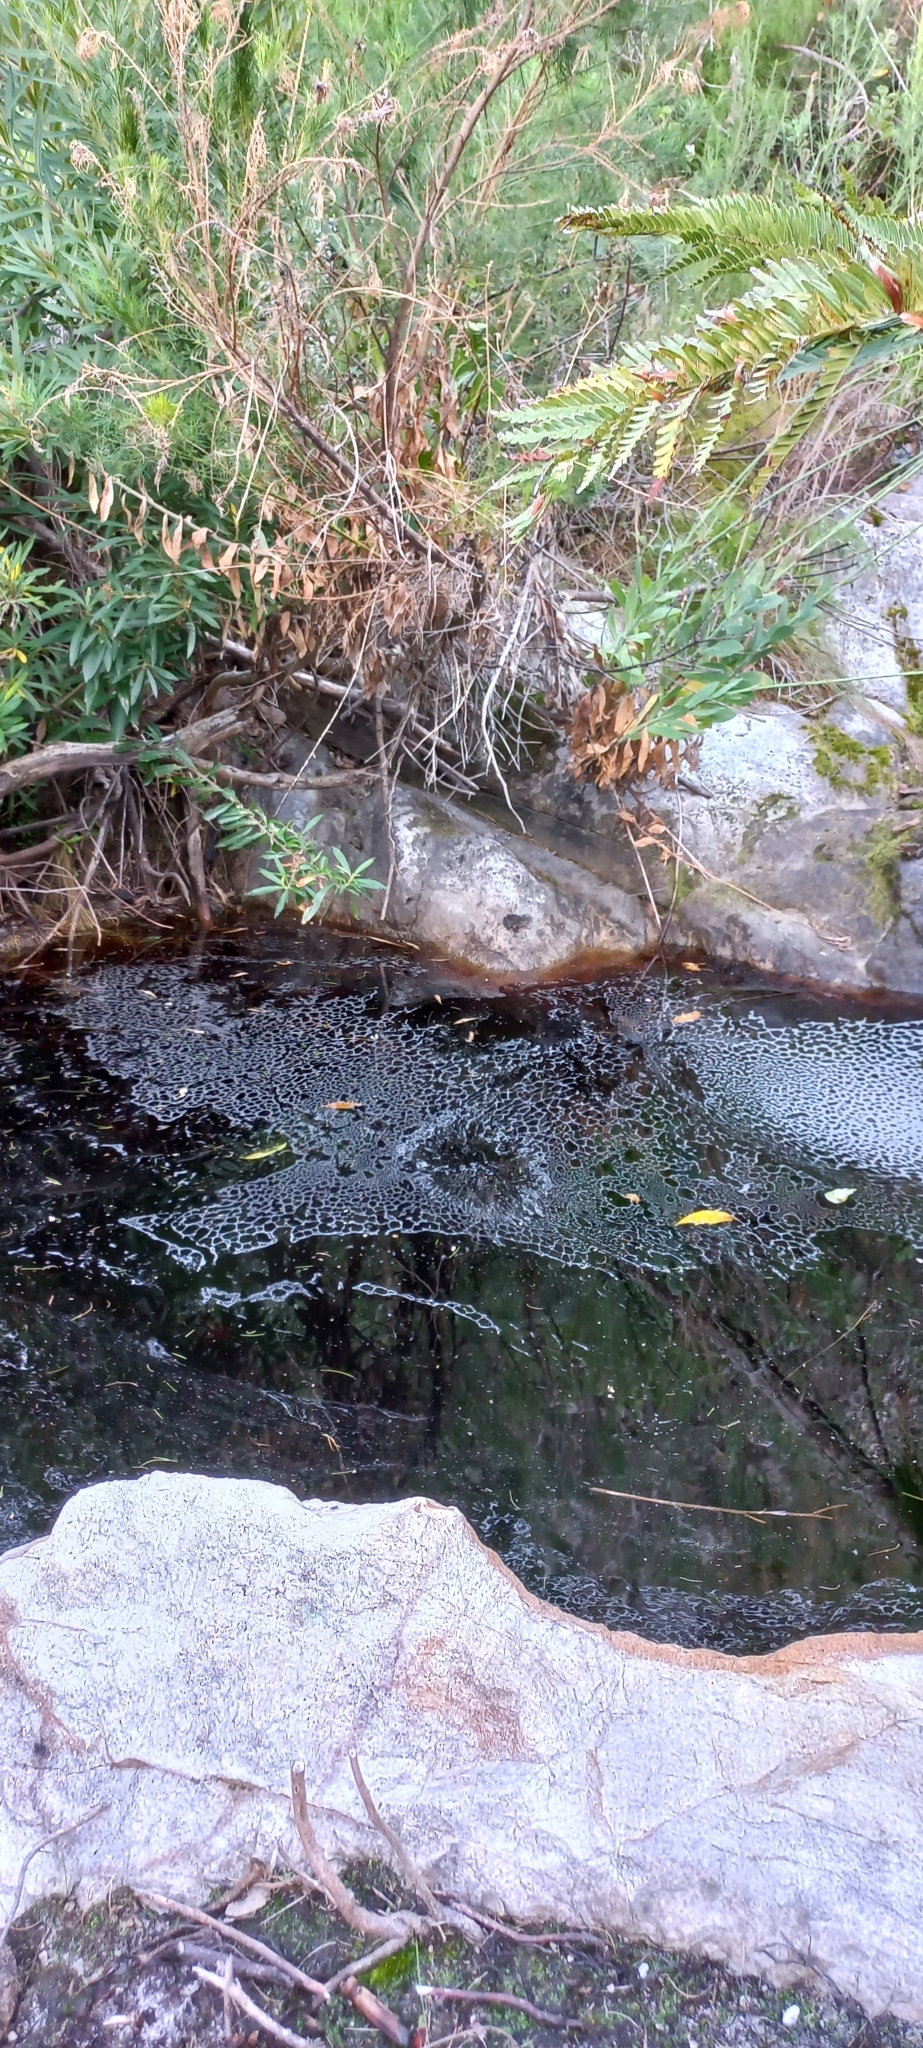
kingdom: Animalia
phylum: Chordata
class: Amphibia
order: Anura
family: Pyxicephalidae
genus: Amietia
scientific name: Amietia fuscigula
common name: Cape rana
